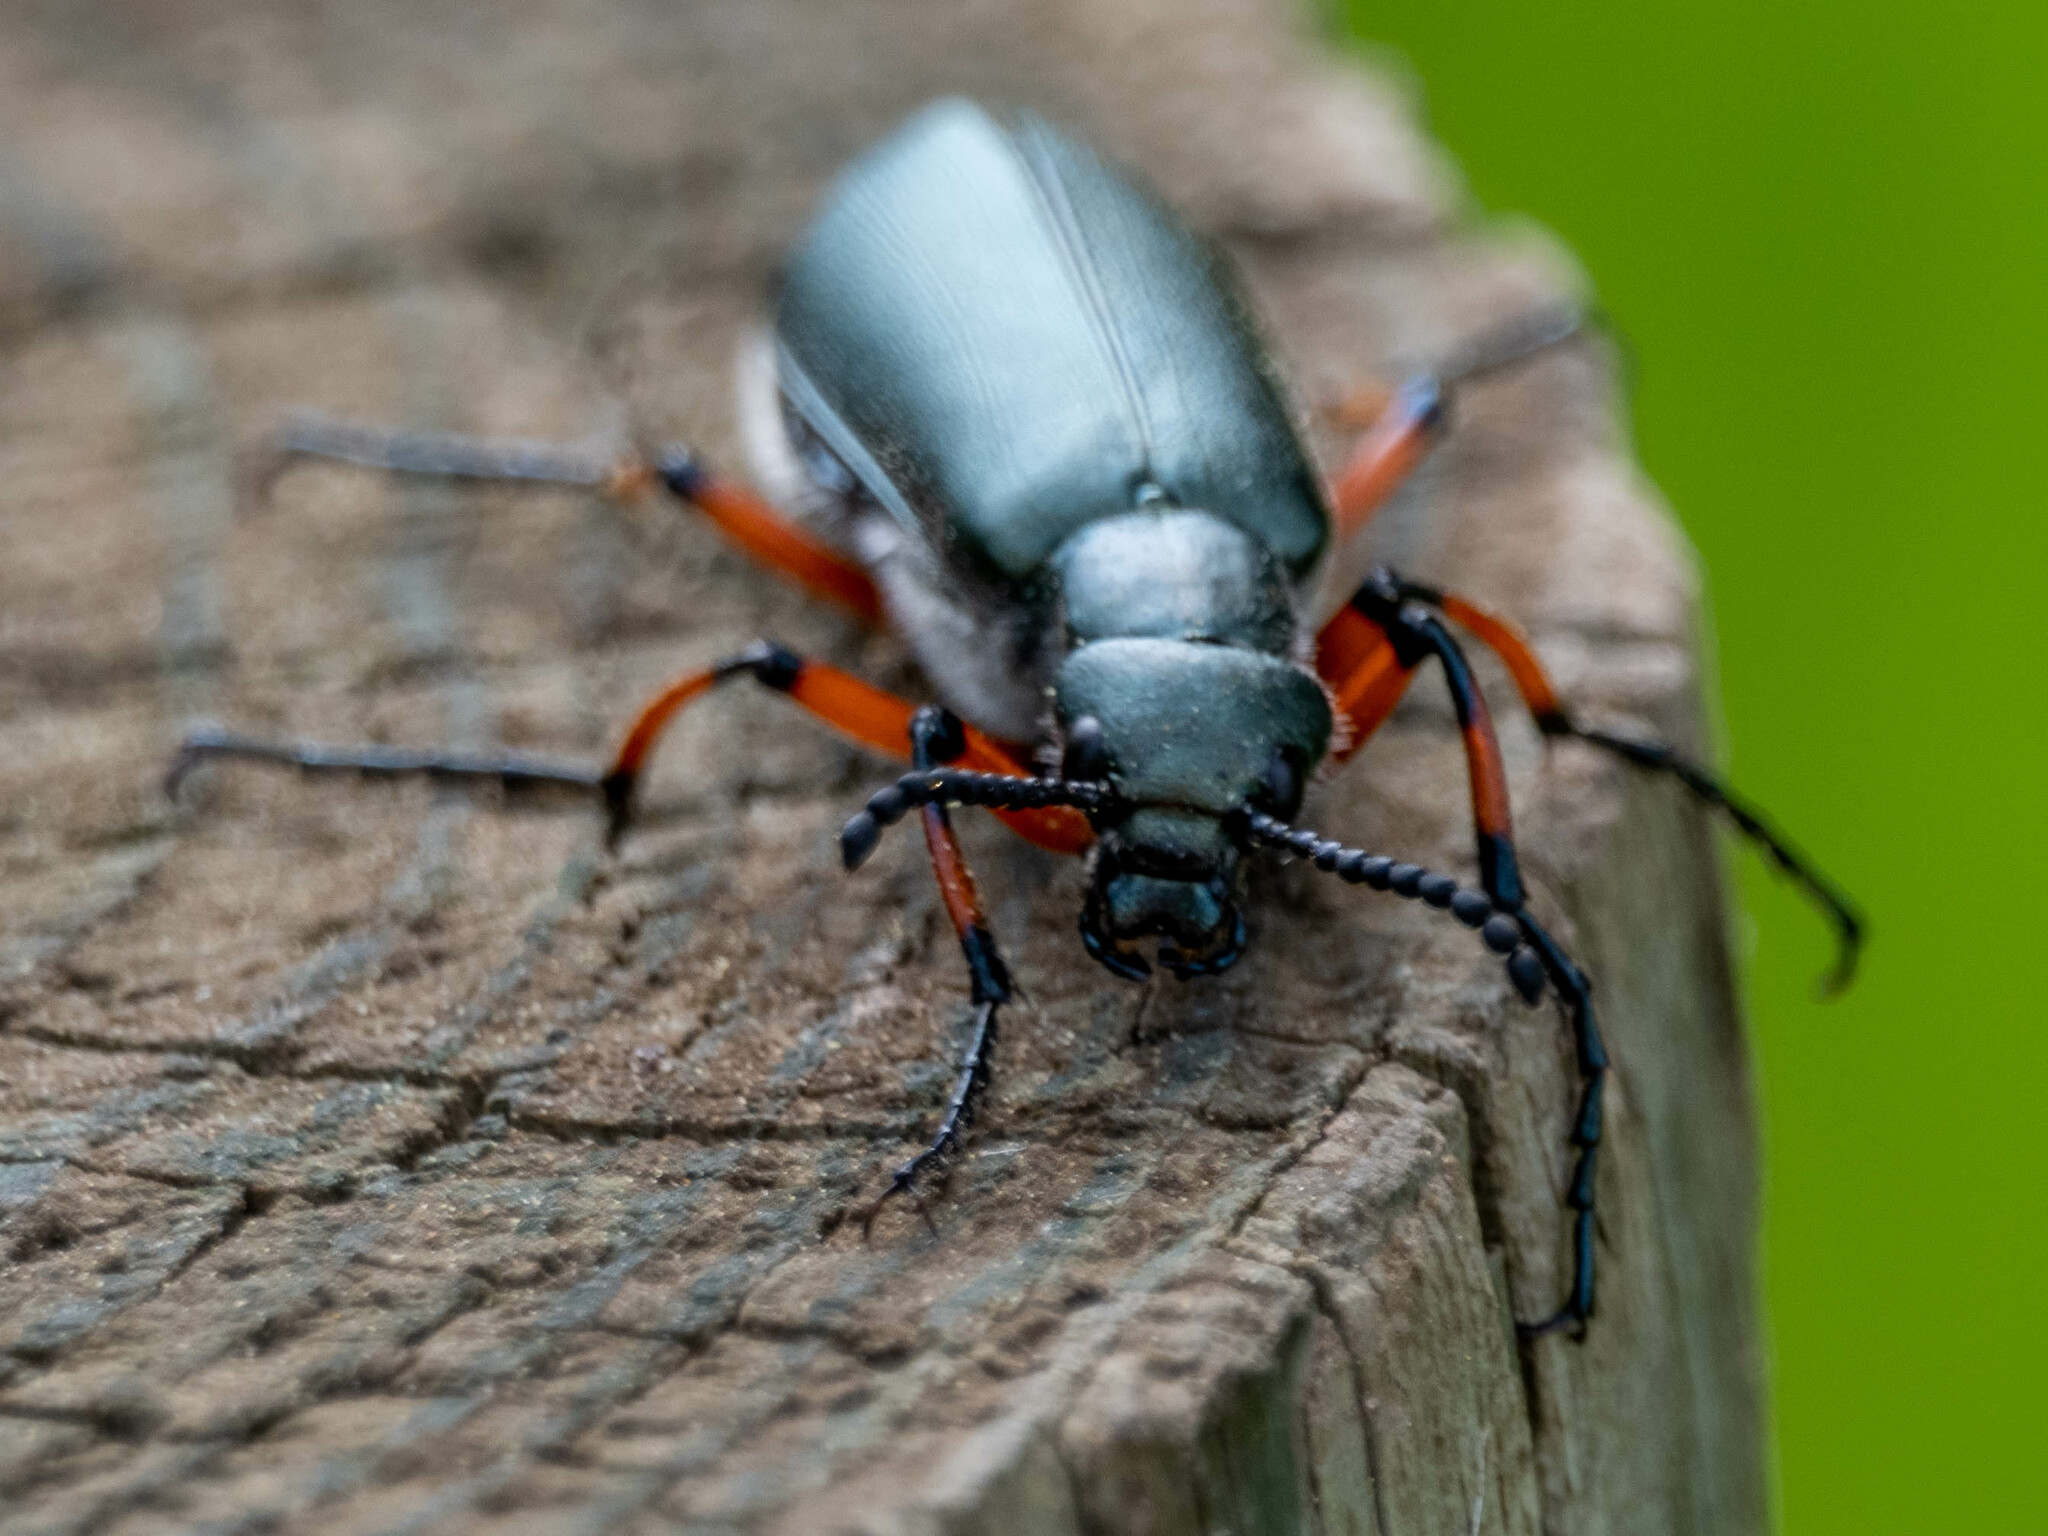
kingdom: Animalia
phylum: Arthropoda
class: Insecta
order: Coleoptera
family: Meloidae
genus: Lytta
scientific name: Lytta sayi
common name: Say's blister beetle
